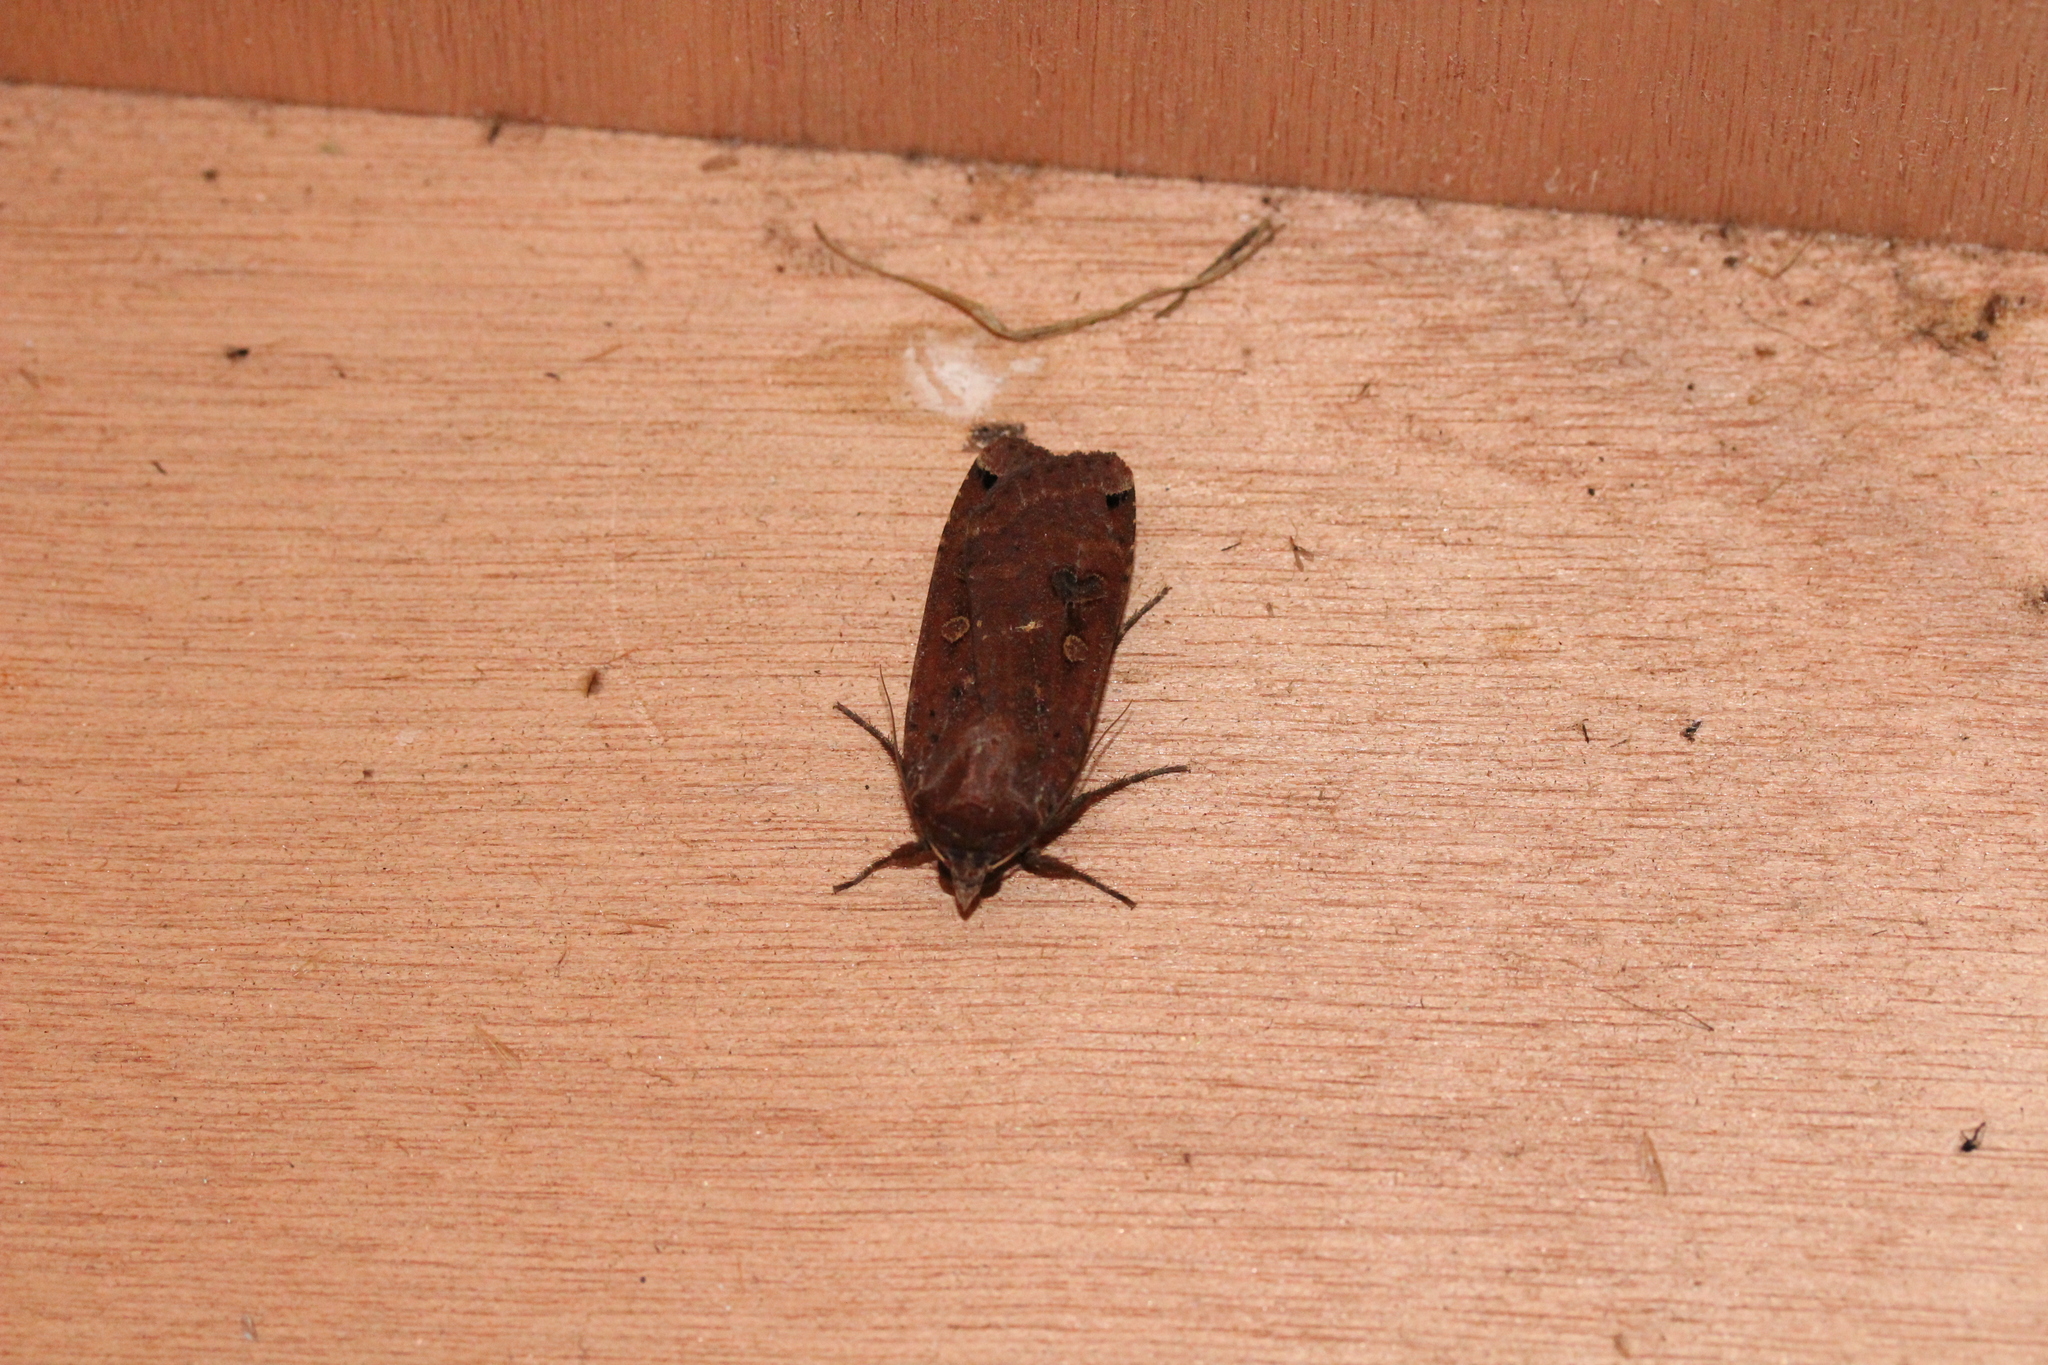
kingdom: Animalia
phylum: Arthropoda
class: Insecta
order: Lepidoptera
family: Noctuidae
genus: Noctua
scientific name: Noctua pronuba
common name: Large yellow underwing
